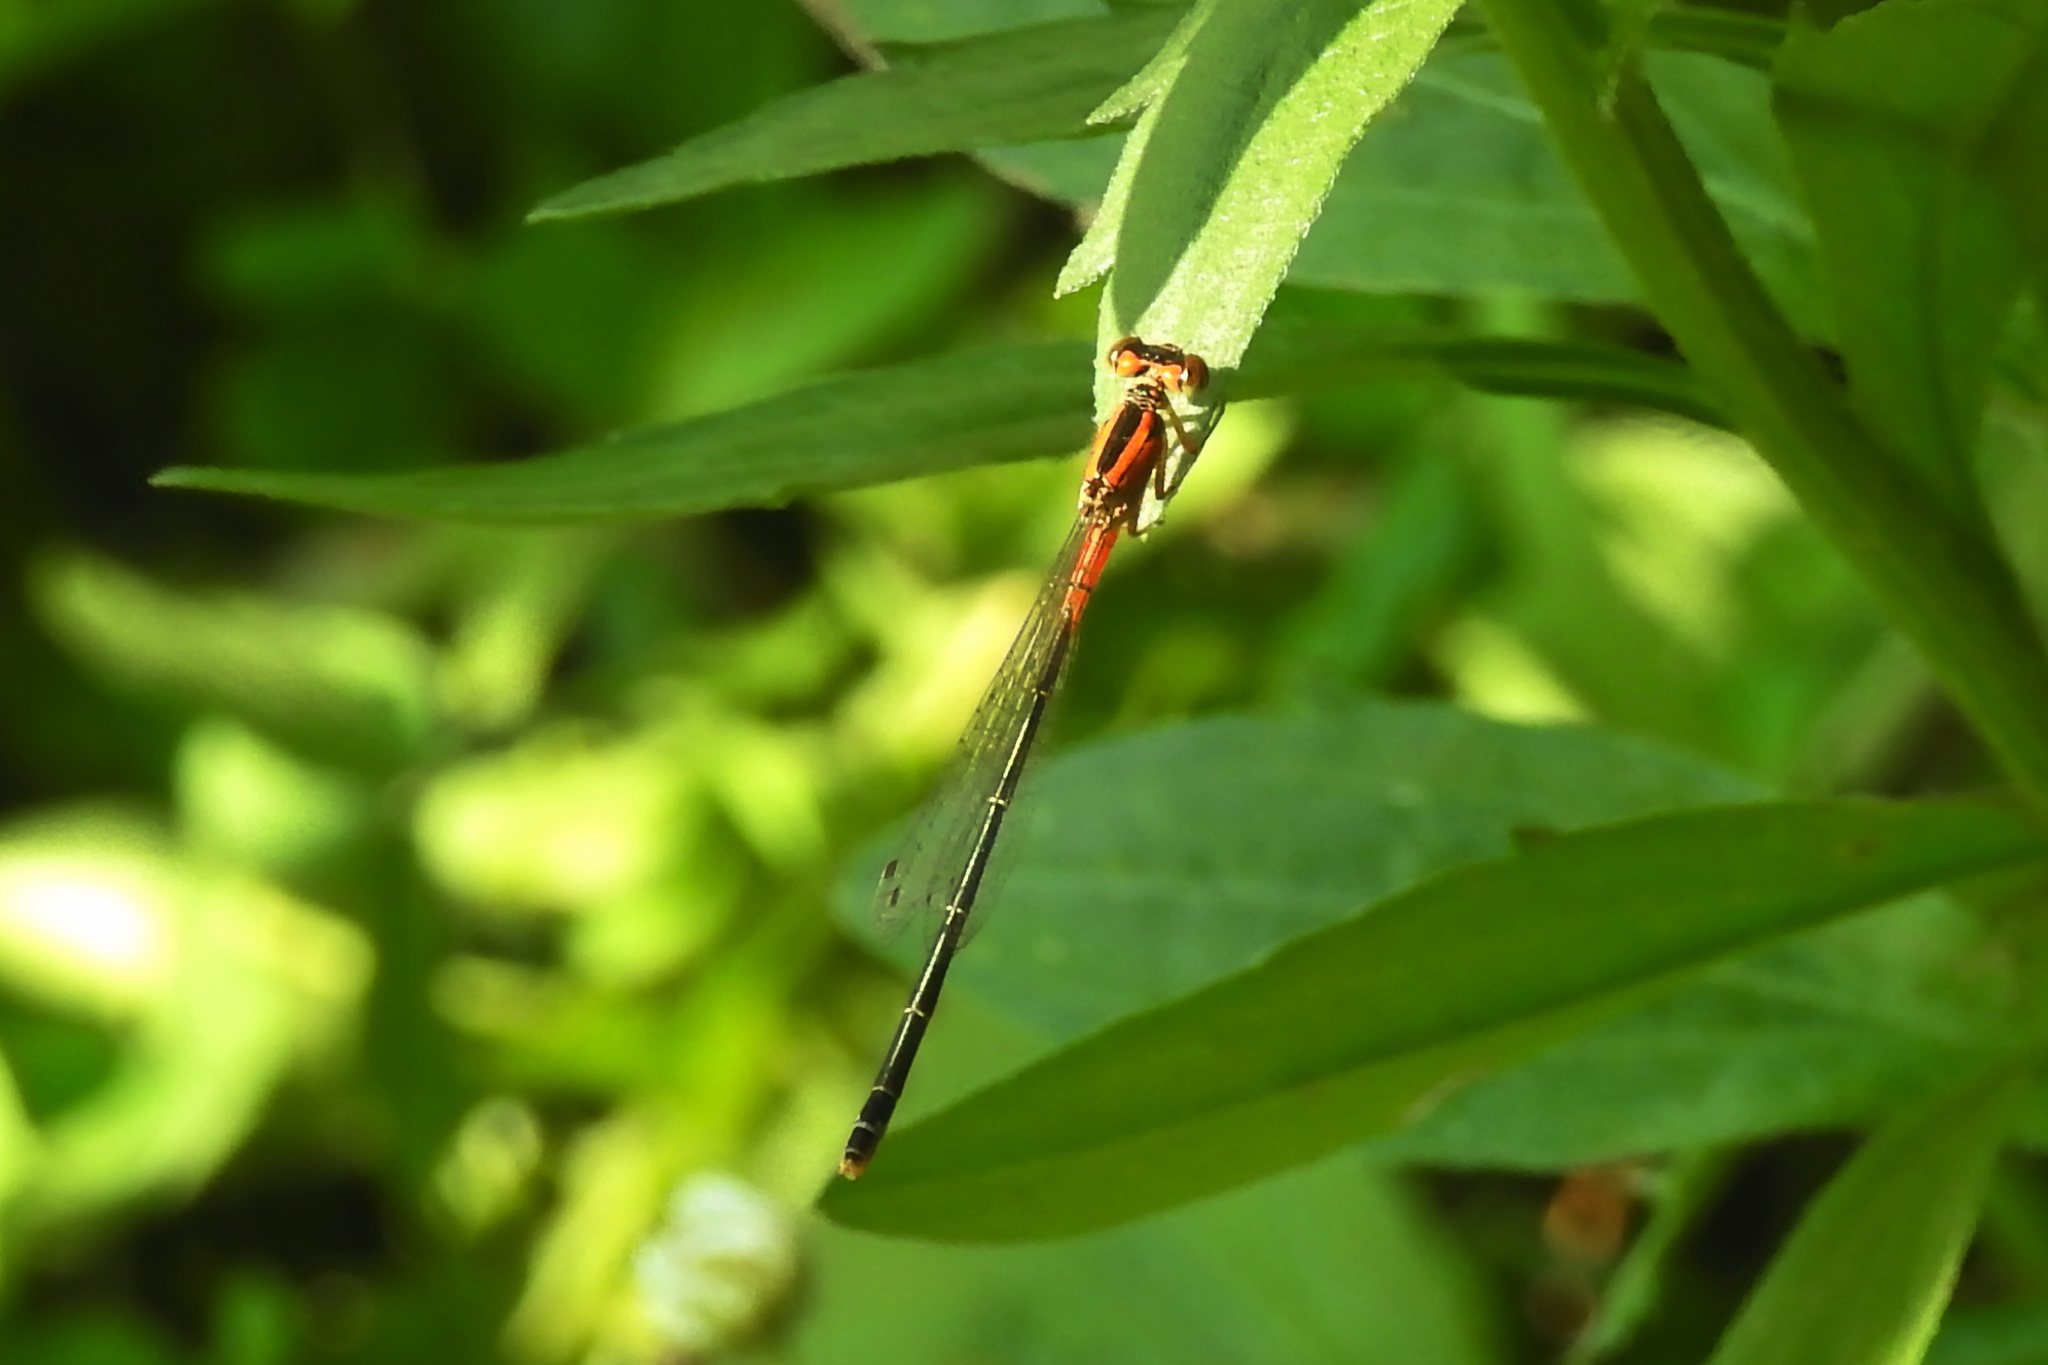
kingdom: Animalia
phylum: Arthropoda
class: Insecta
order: Odonata
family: Coenagrionidae
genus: Ischnura
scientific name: Ischnura verticalis
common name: Eastern forktail
